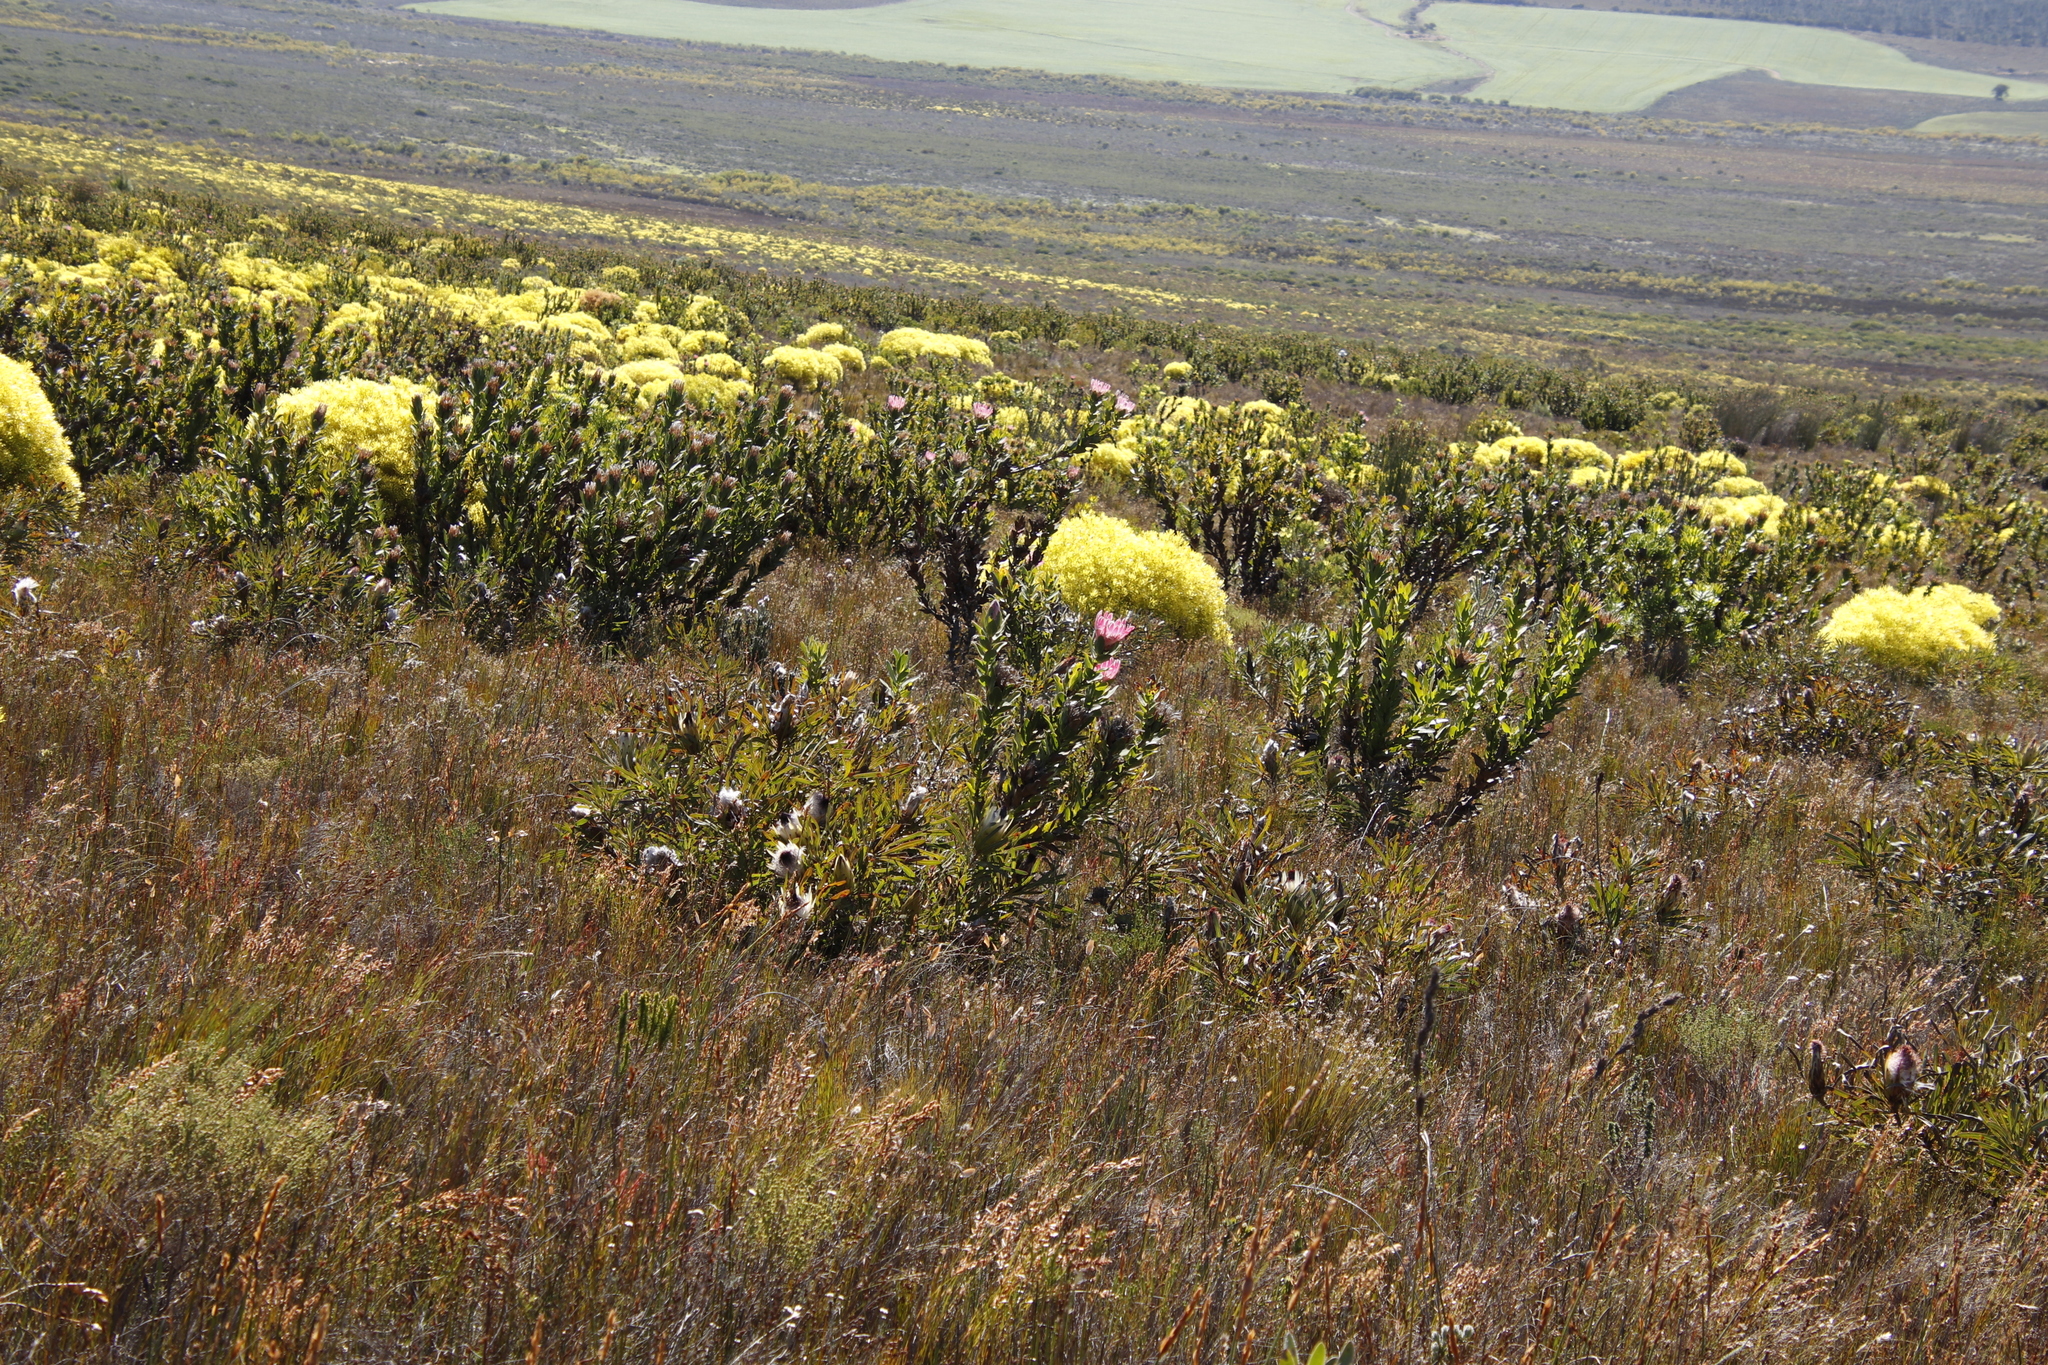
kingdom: Plantae
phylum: Tracheophyta
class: Magnoliopsida
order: Proteales
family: Proteaceae
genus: Protea
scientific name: Protea compacta
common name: Bot river protea
